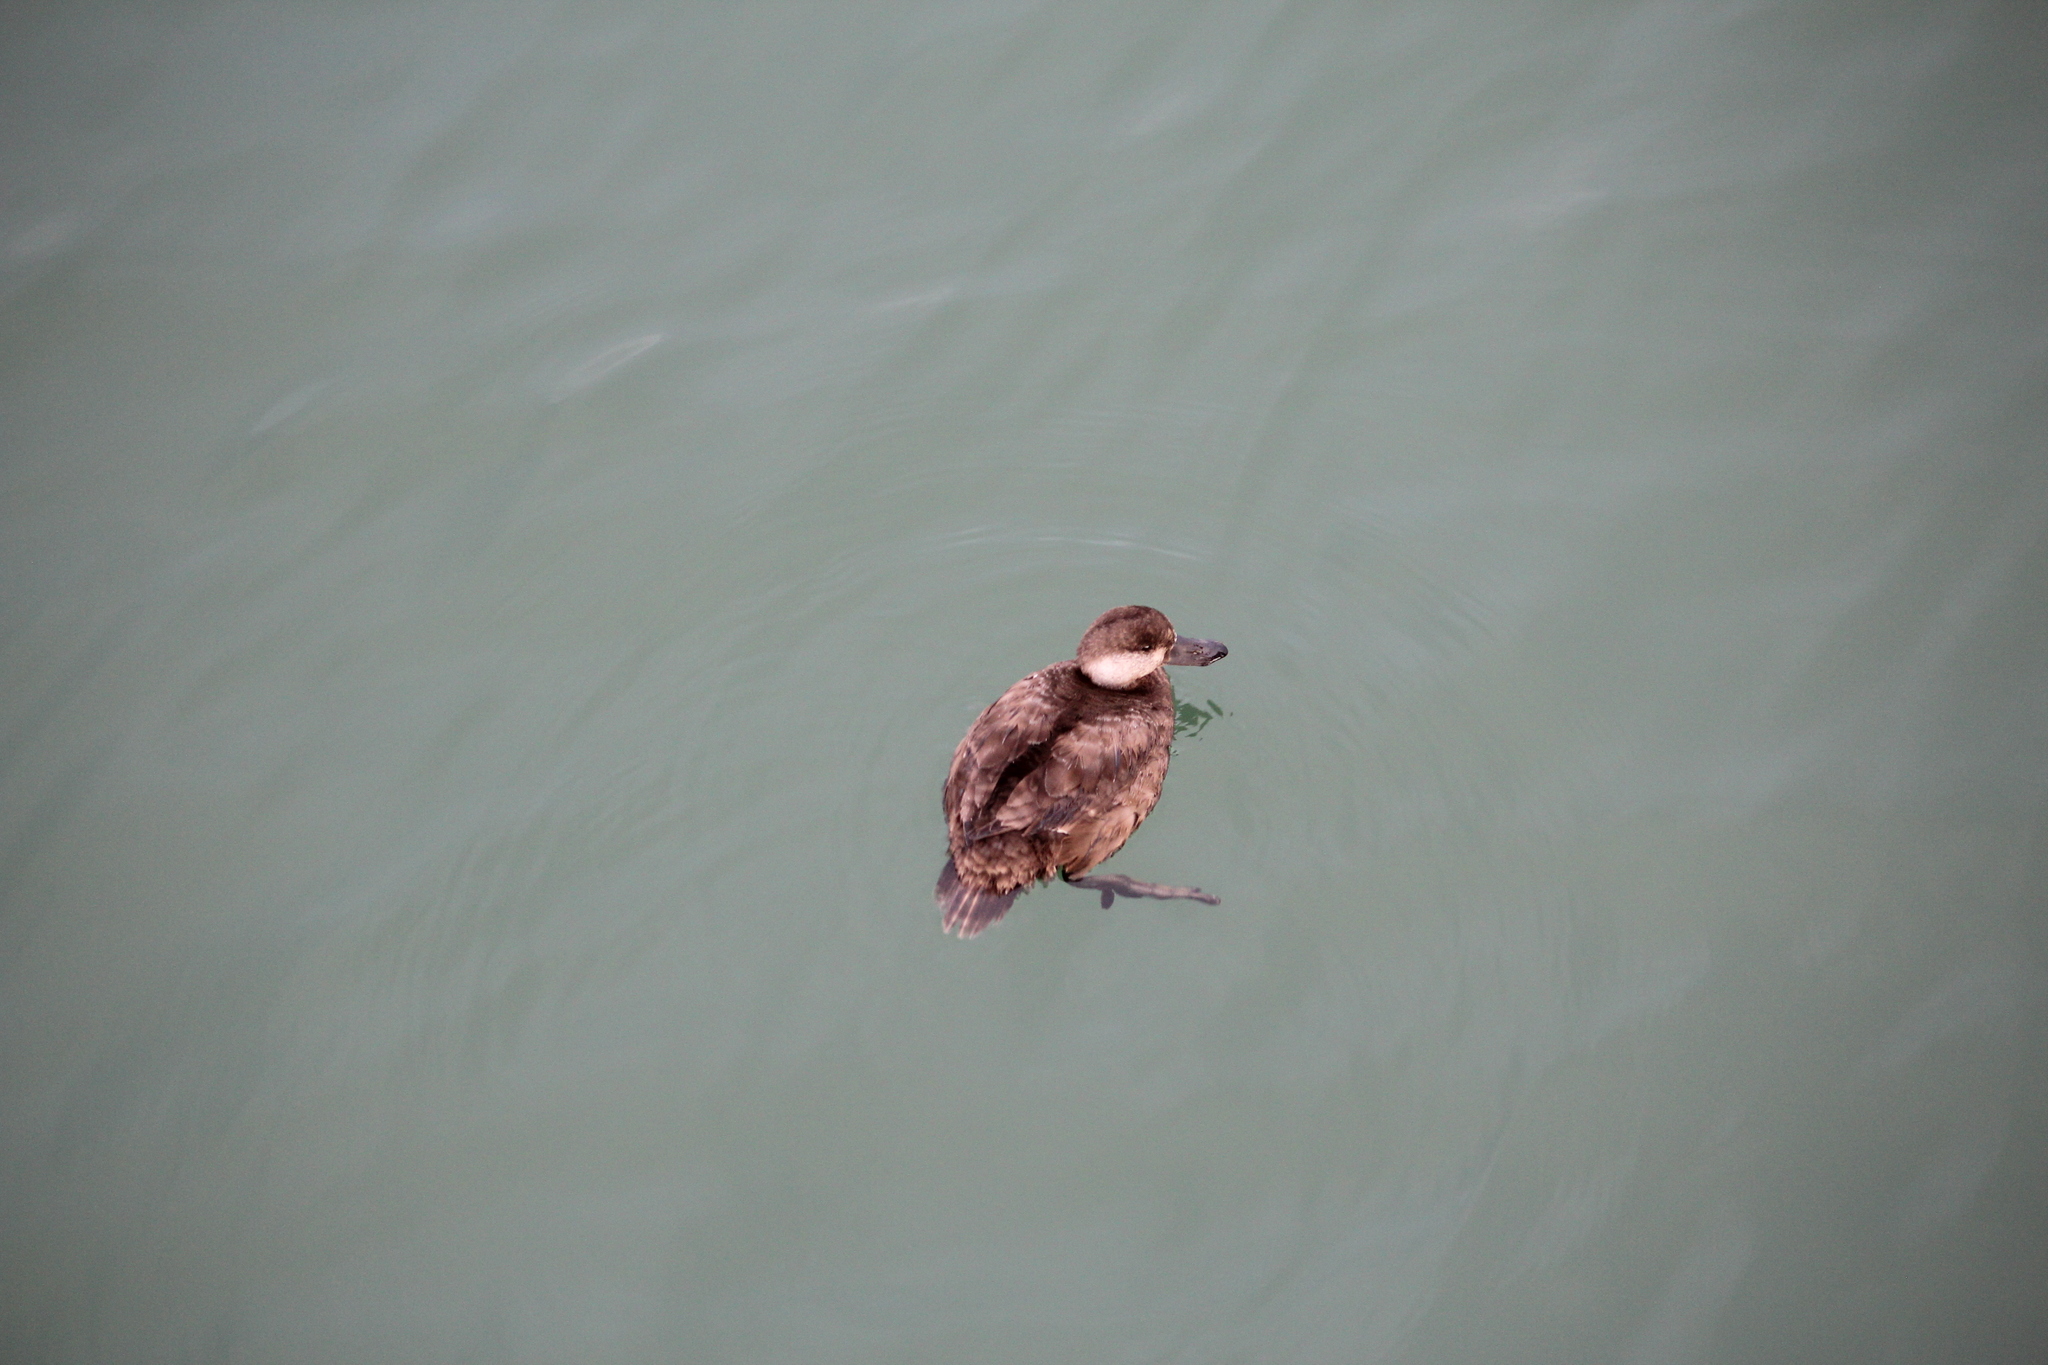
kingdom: Animalia
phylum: Chordata
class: Aves
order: Anseriformes
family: Anatidae
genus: Melanitta
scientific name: Melanitta americana
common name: Black scoter
